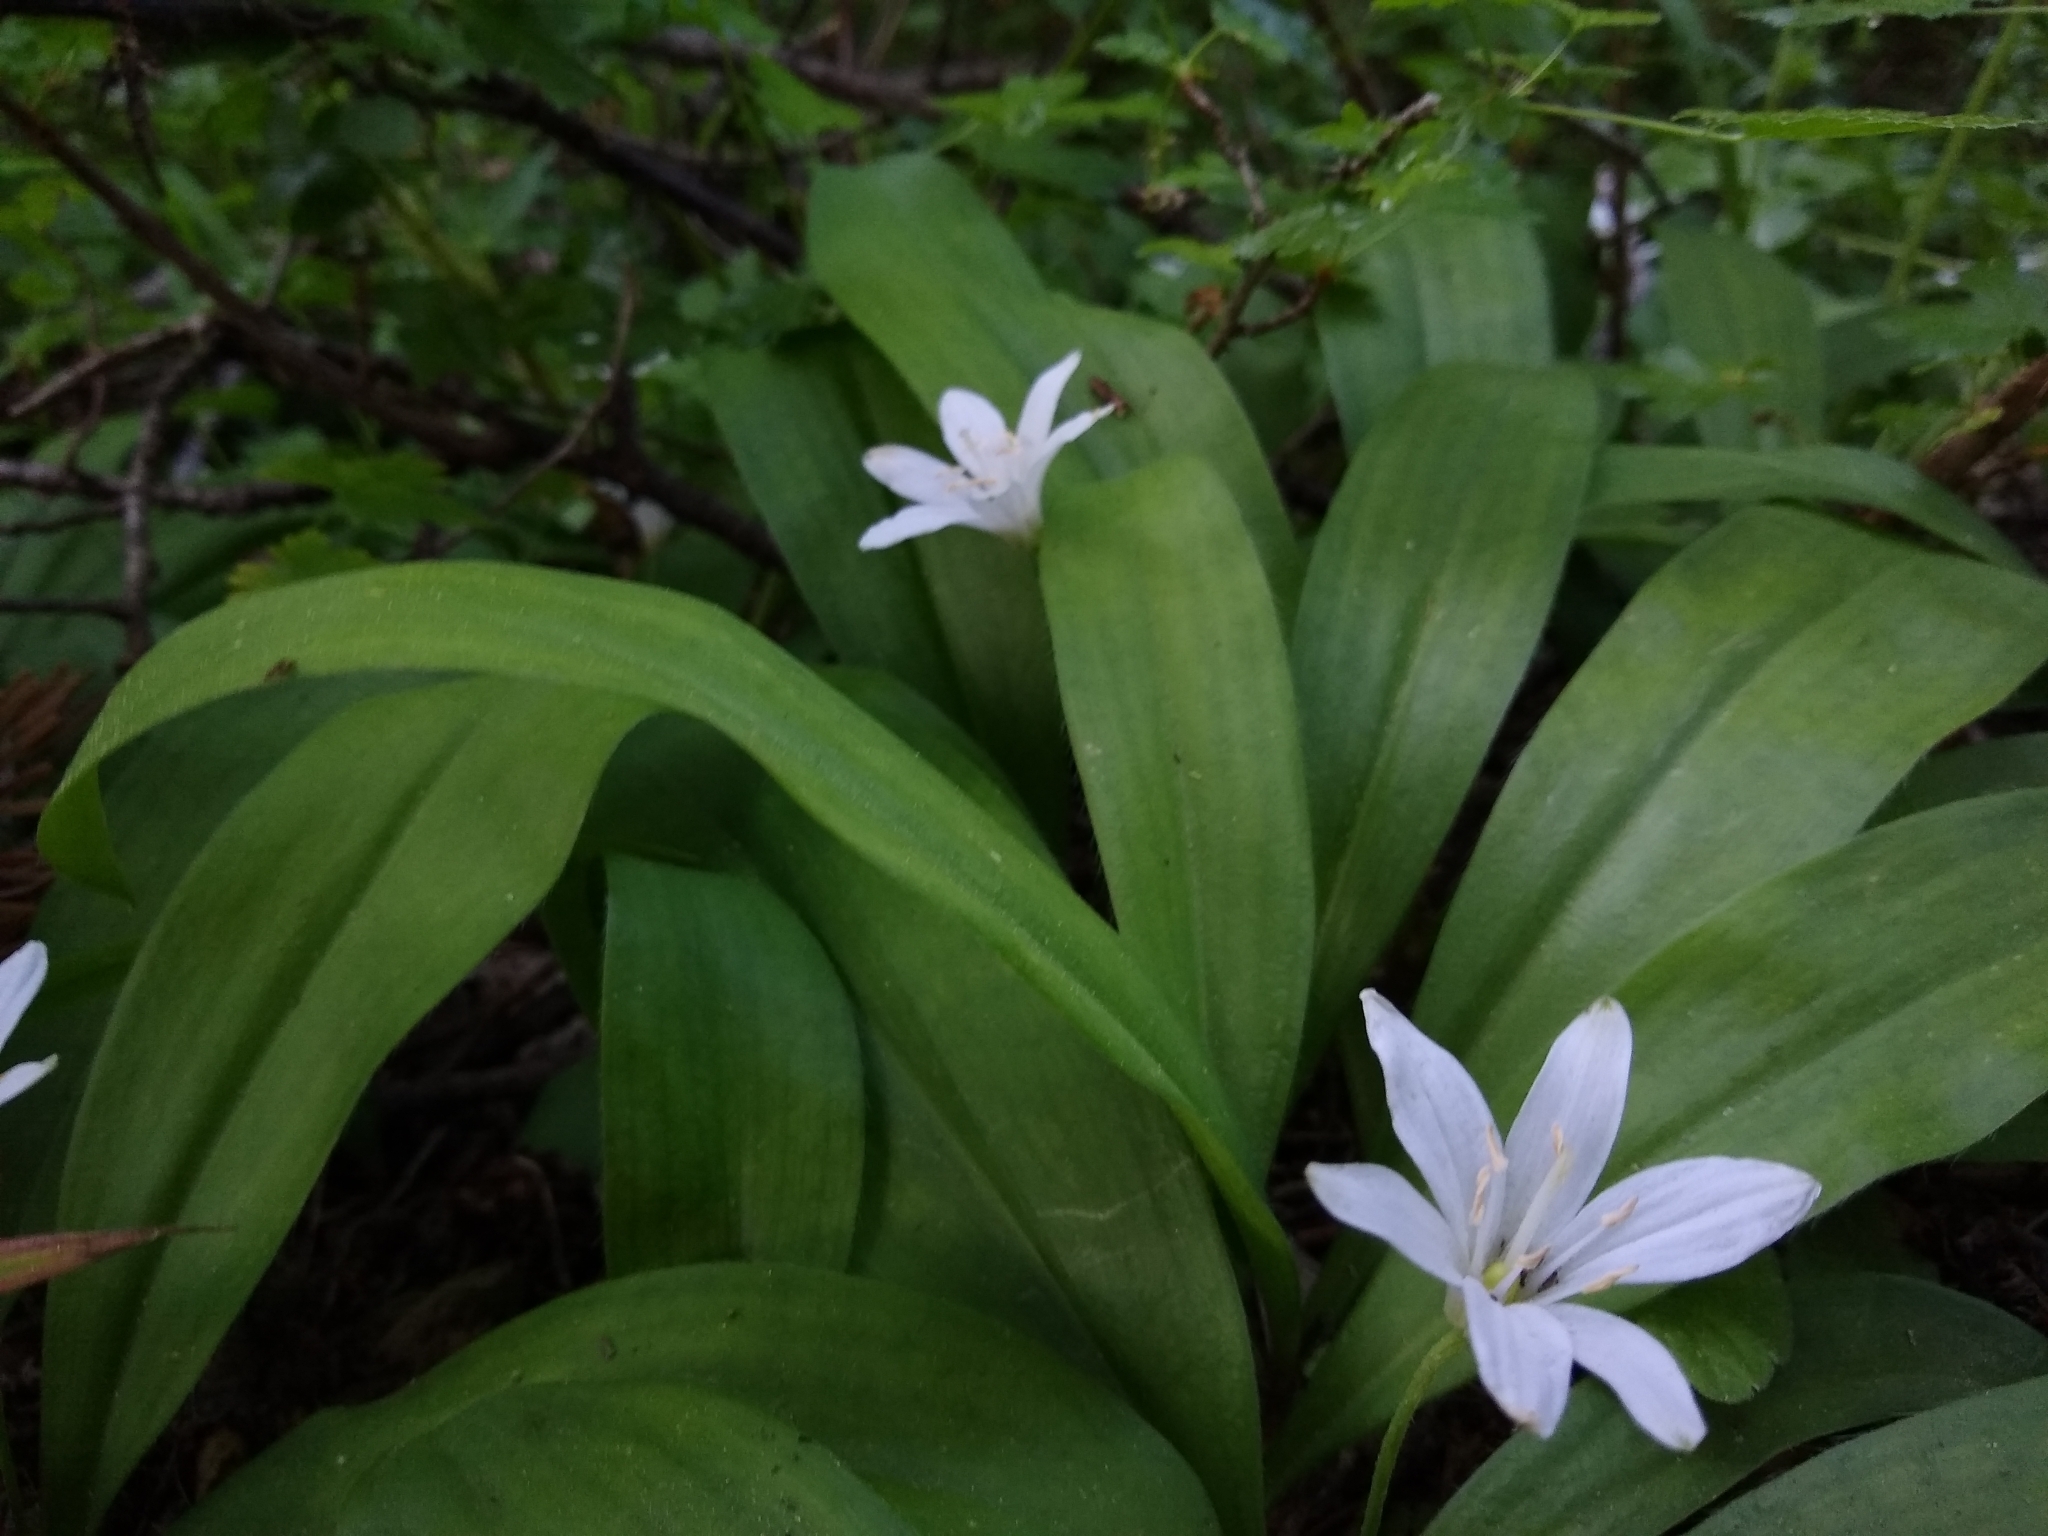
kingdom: Plantae
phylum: Tracheophyta
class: Liliopsida
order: Liliales
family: Liliaceae
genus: Clintonia
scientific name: Clintonia uniflora
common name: Queen's cup
